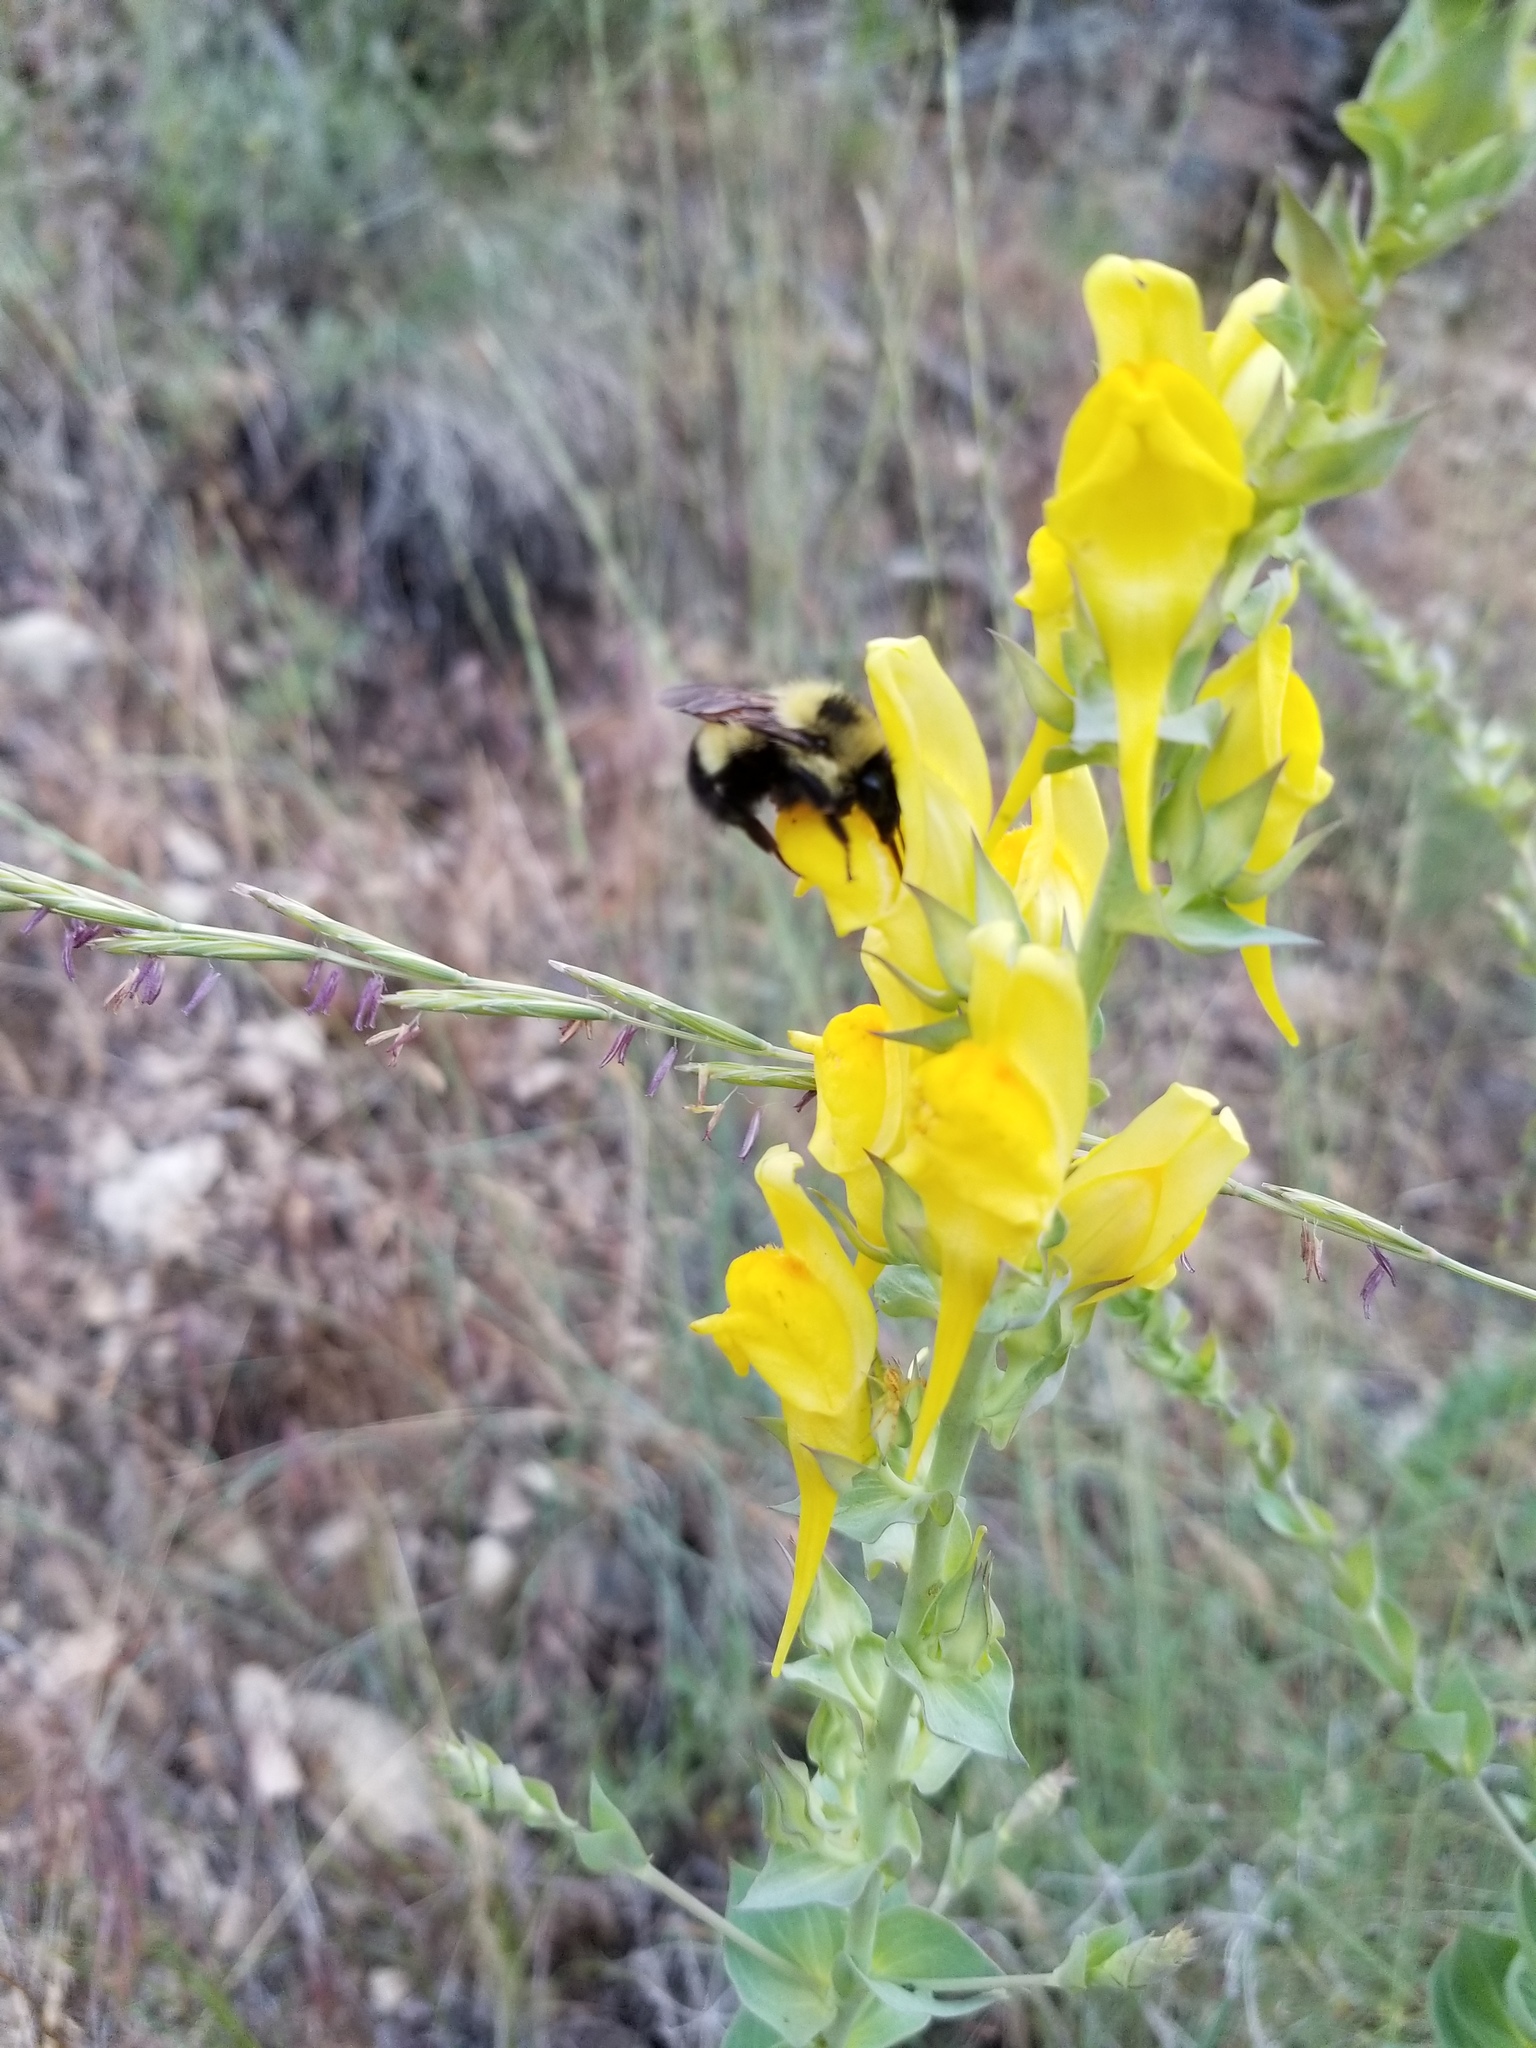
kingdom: Plantae
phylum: Tracheophyta
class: Magnoliopsida
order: Lamiales
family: Plantaginaceae
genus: Linaria
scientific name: Linaria dalmatica
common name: Dalmatian toadflax
